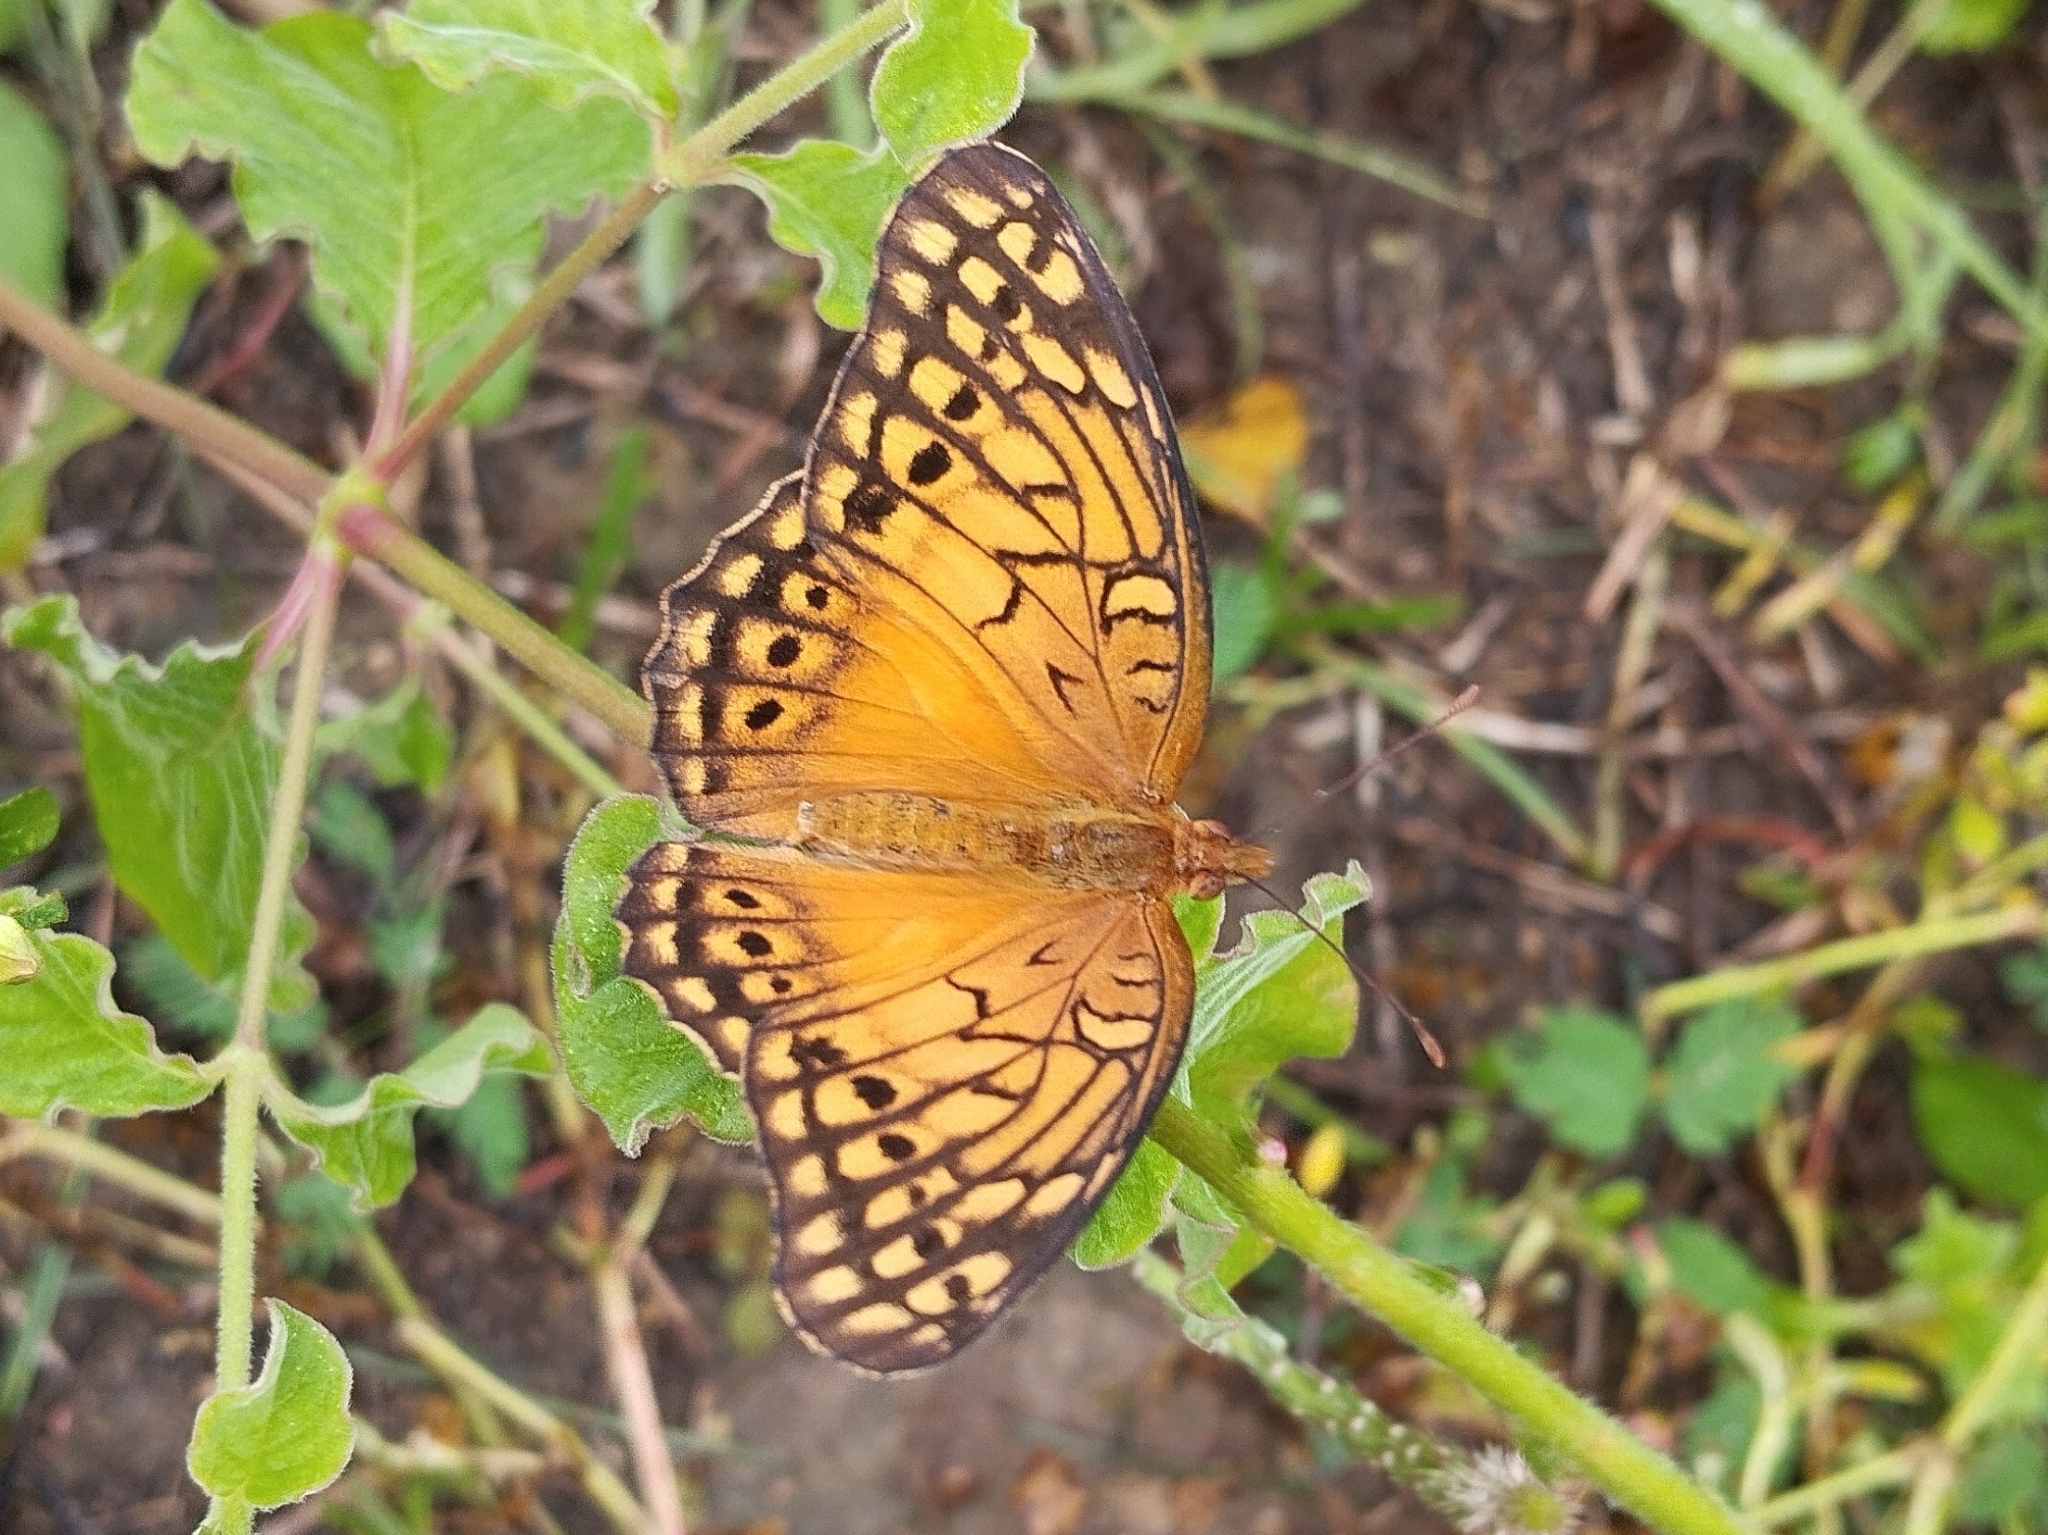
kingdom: Animalia
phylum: Arthropoda
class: Insecta
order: Lepidoptera
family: Nymphalidae
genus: Euptoieta
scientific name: Euptoieta hegesia
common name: Mexican fritillary
